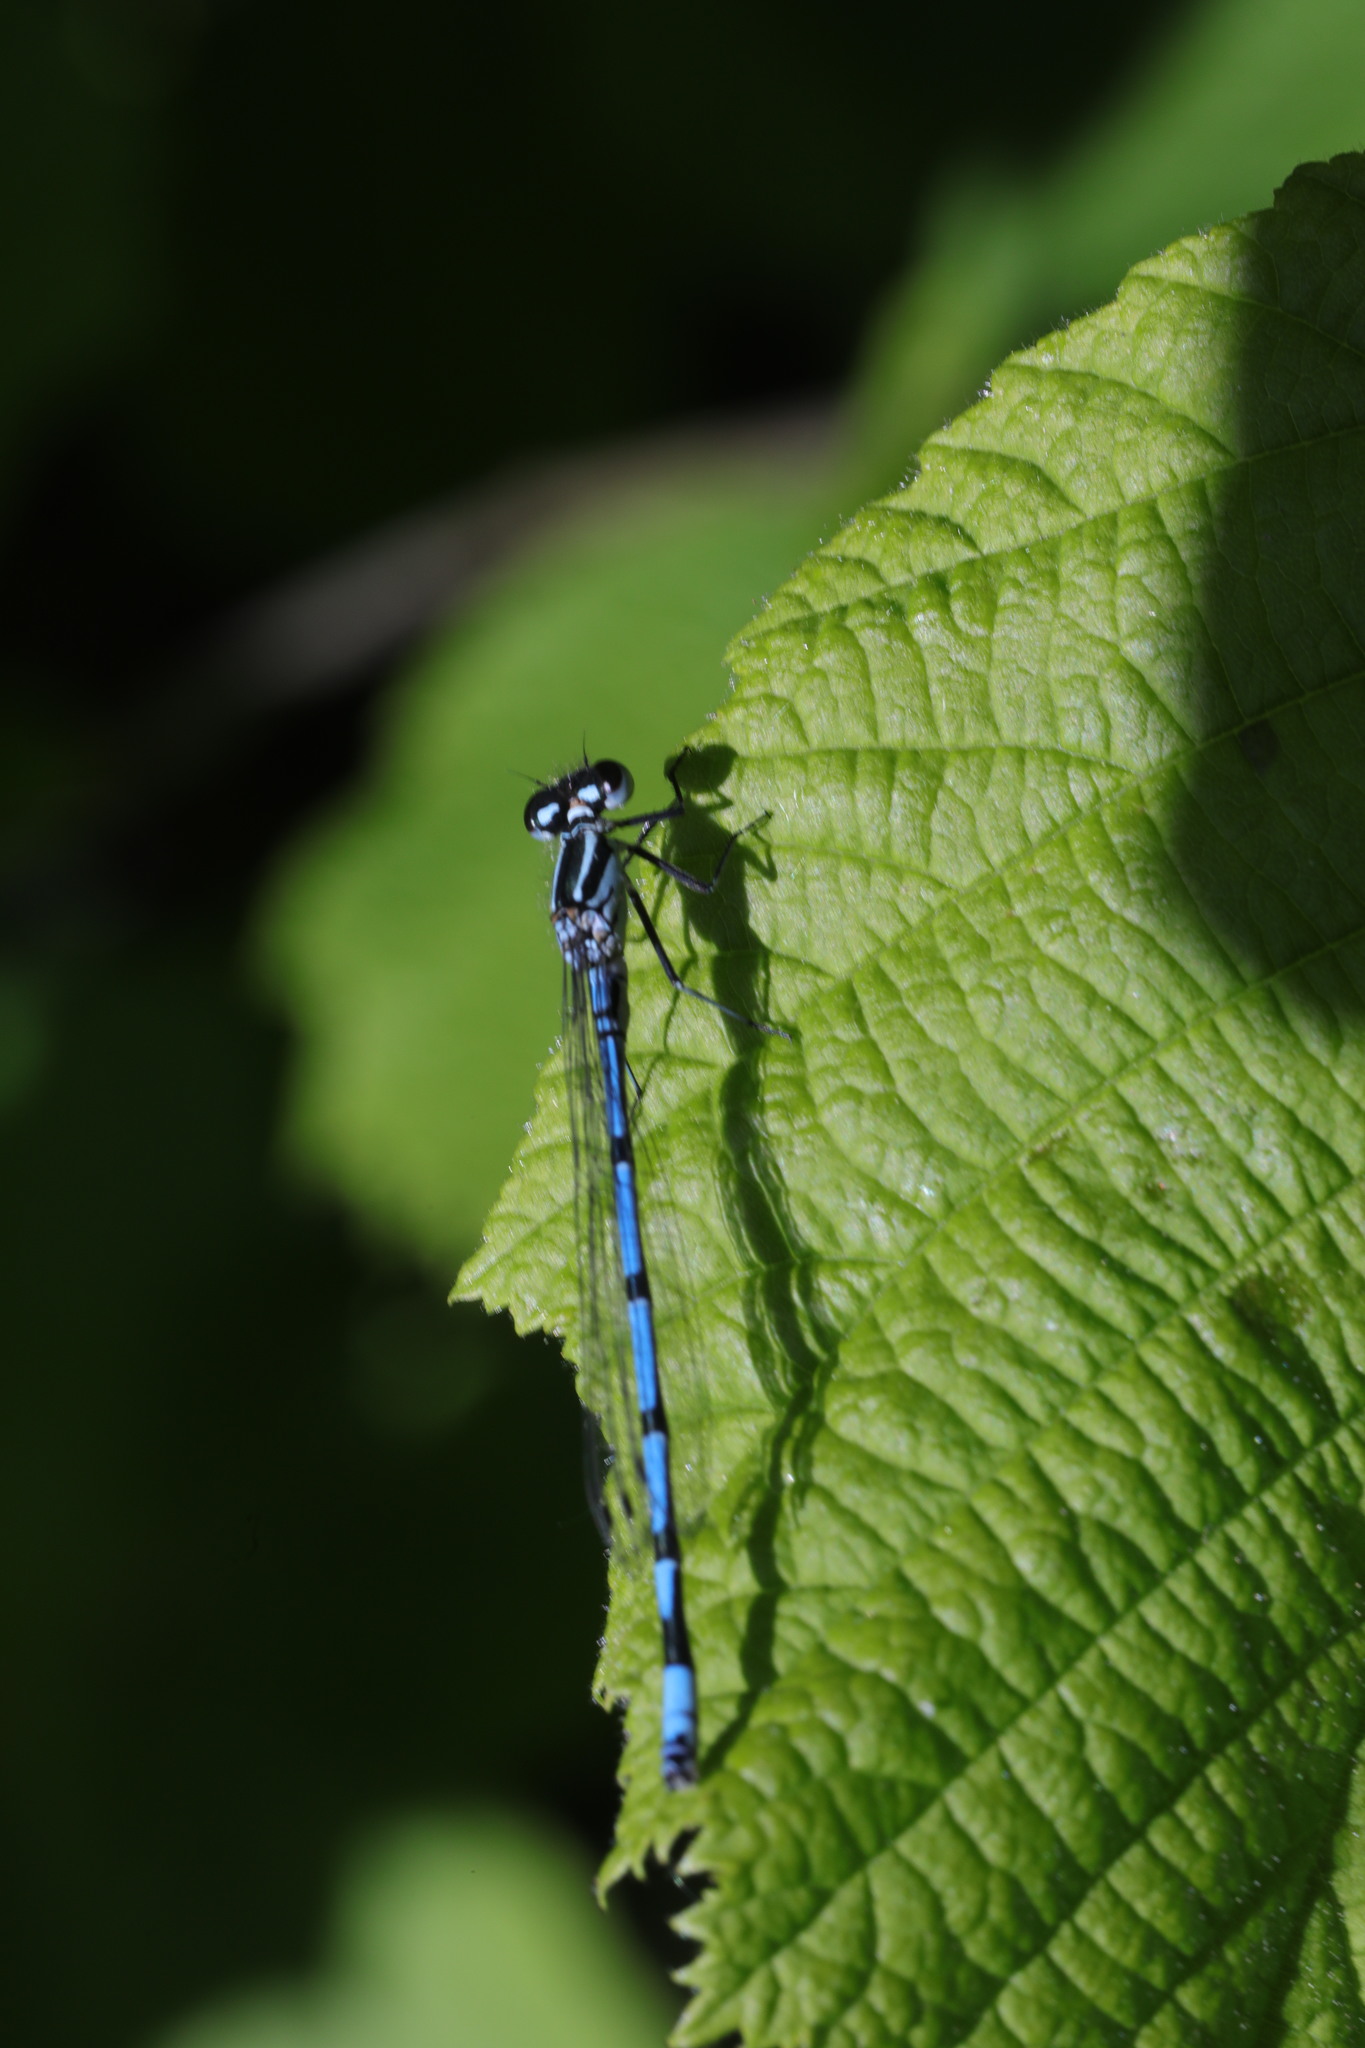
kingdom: Animalia
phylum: Arthropoda
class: Insecta
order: Odonata
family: Coenagrionidae
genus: Coenagrion
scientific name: Coenagrion puella
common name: Azure damselfly
